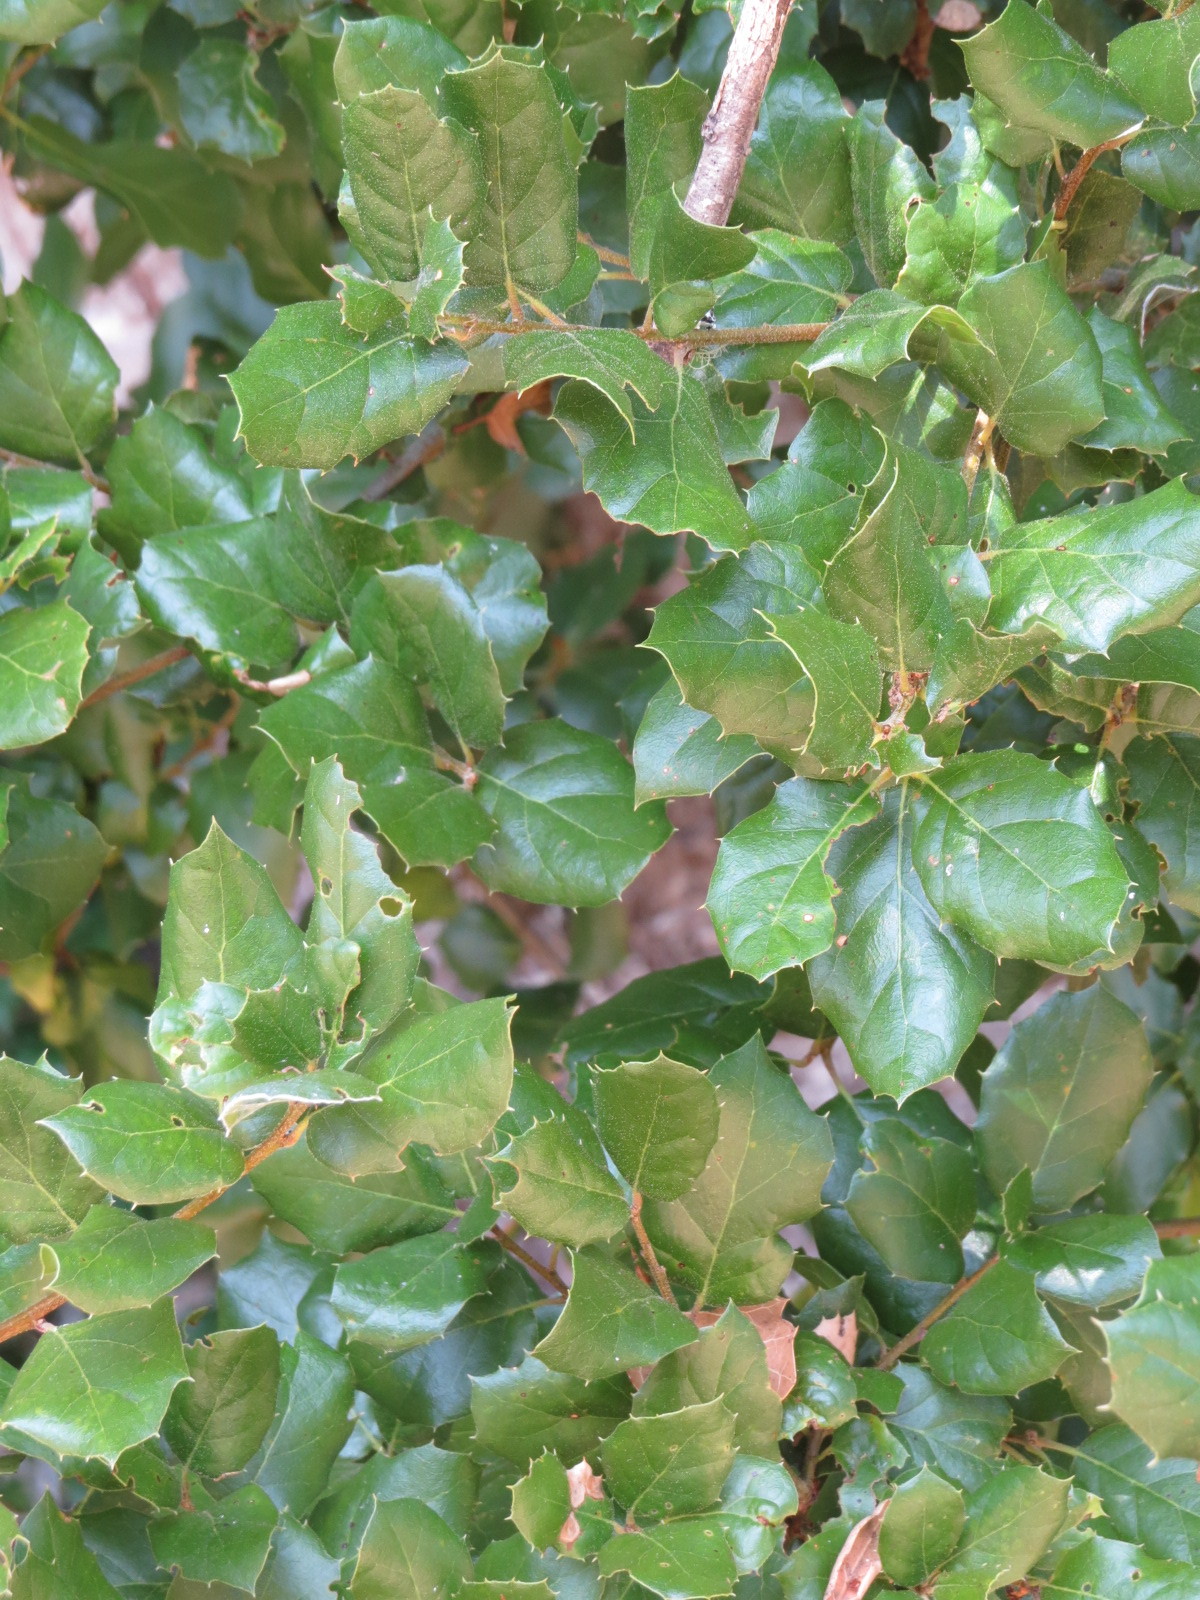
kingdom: Plantae
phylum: Tracheophyta
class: Magnoliopsida
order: Fagales
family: Fagaceae
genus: Quercus
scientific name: Quercus agrifolia
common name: California live oak
